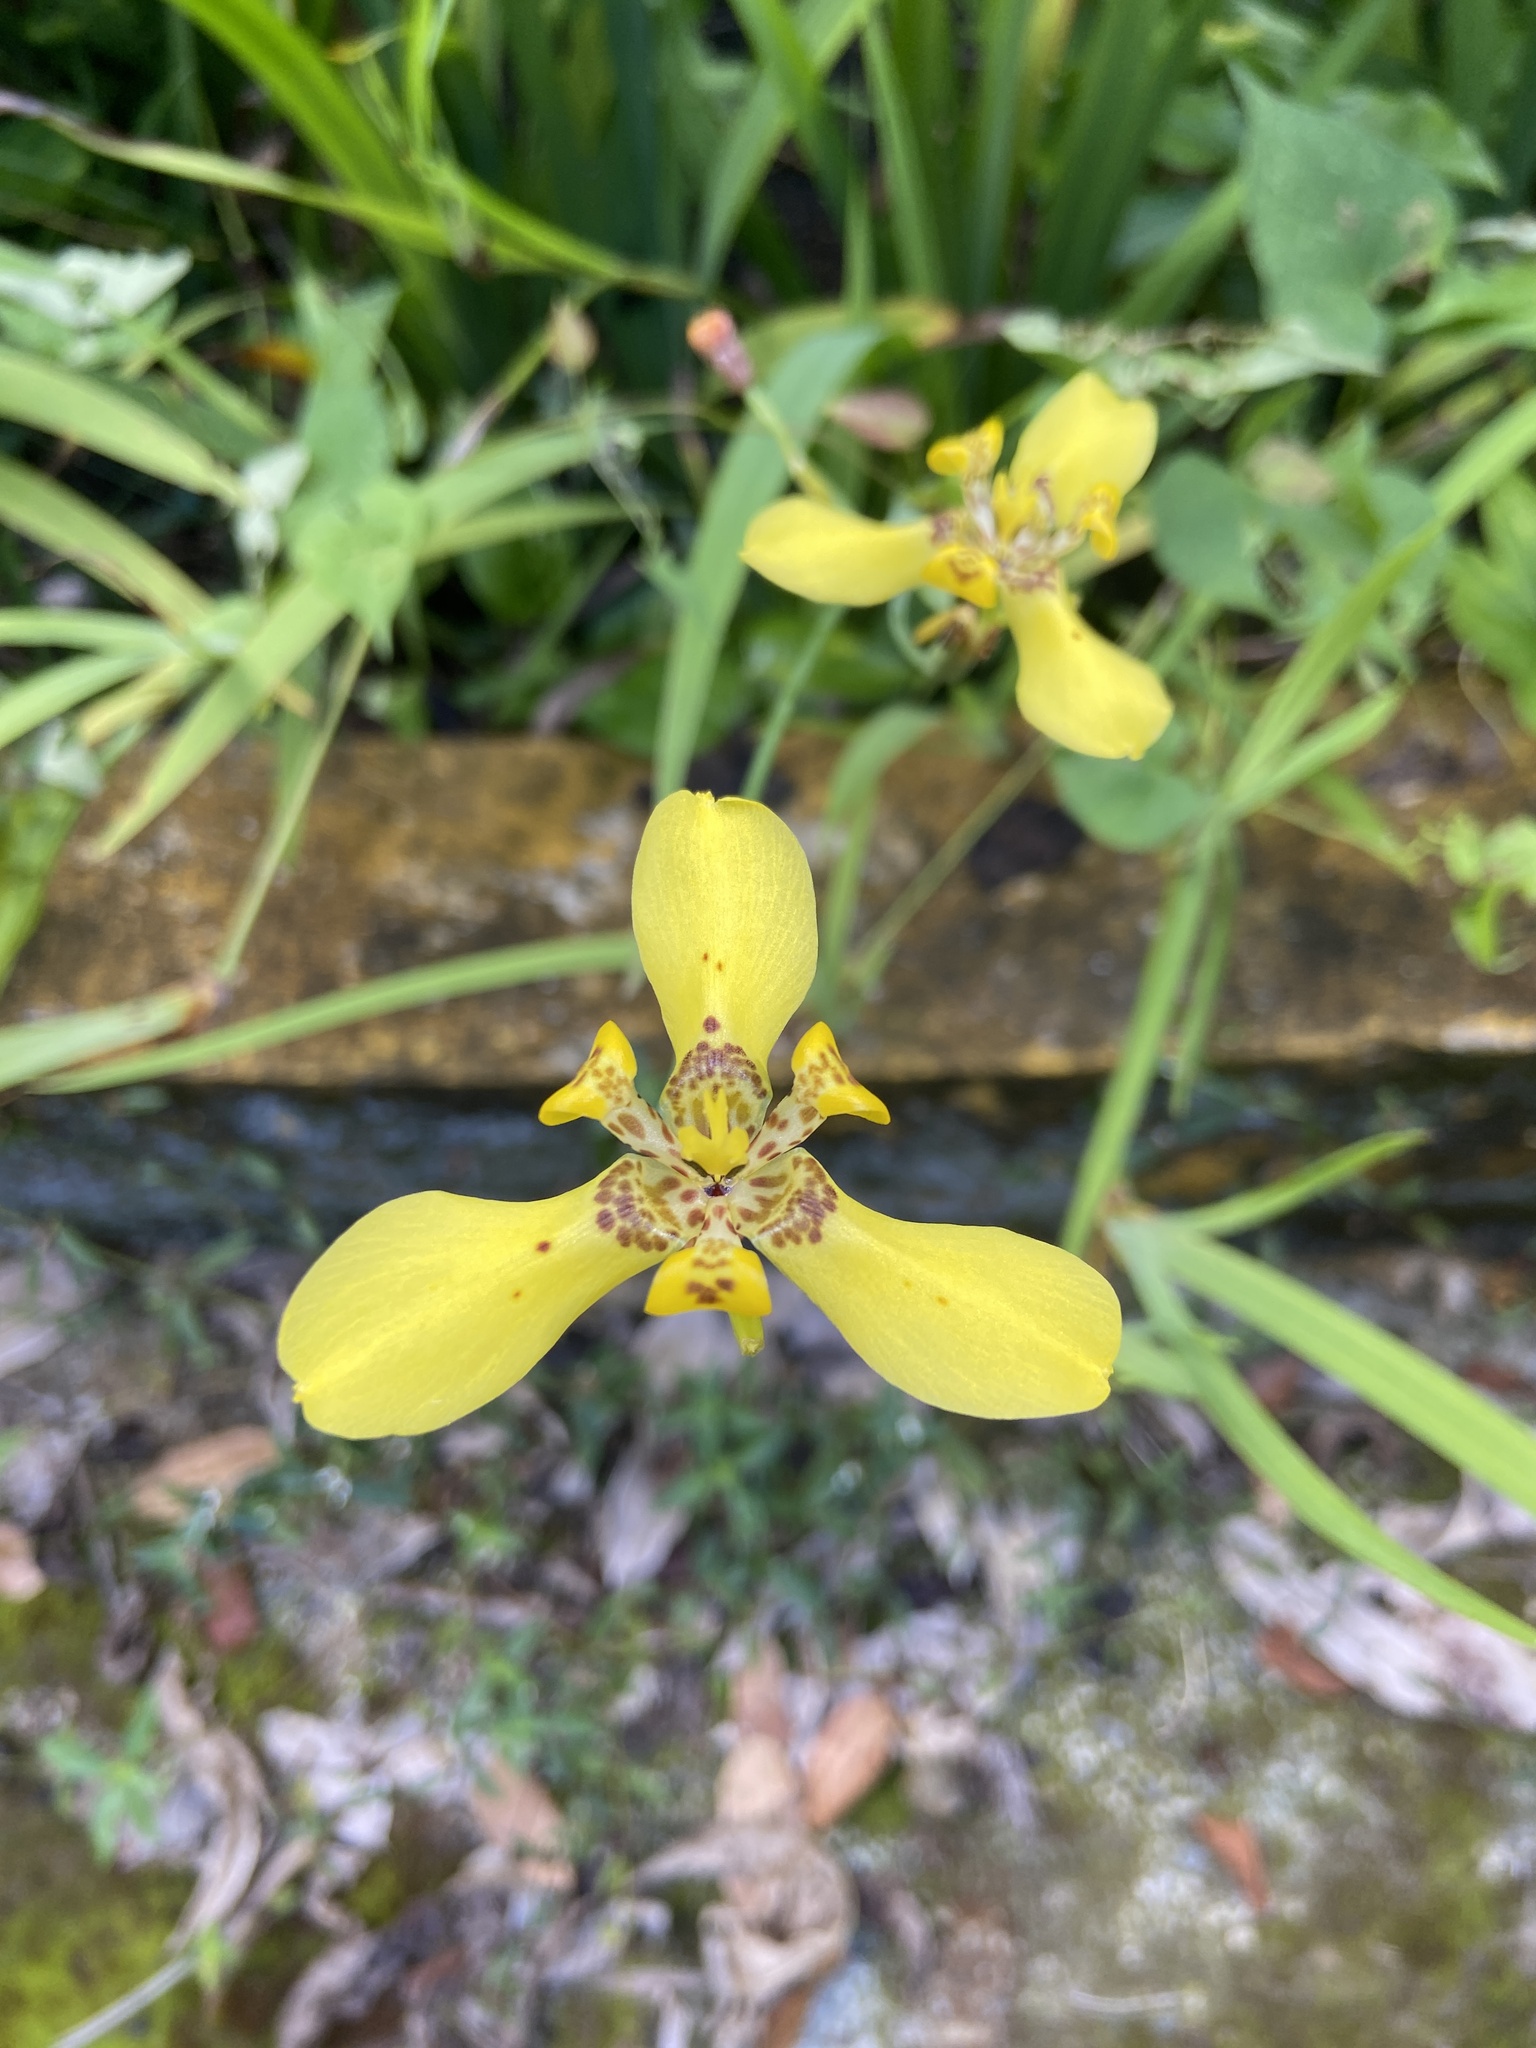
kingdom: Plantae
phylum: Tracheophyta
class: Liliopsida
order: Asparagales
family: Iridaceae
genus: Trimezia
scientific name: Trimezia steyermarkii
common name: Trimezia
